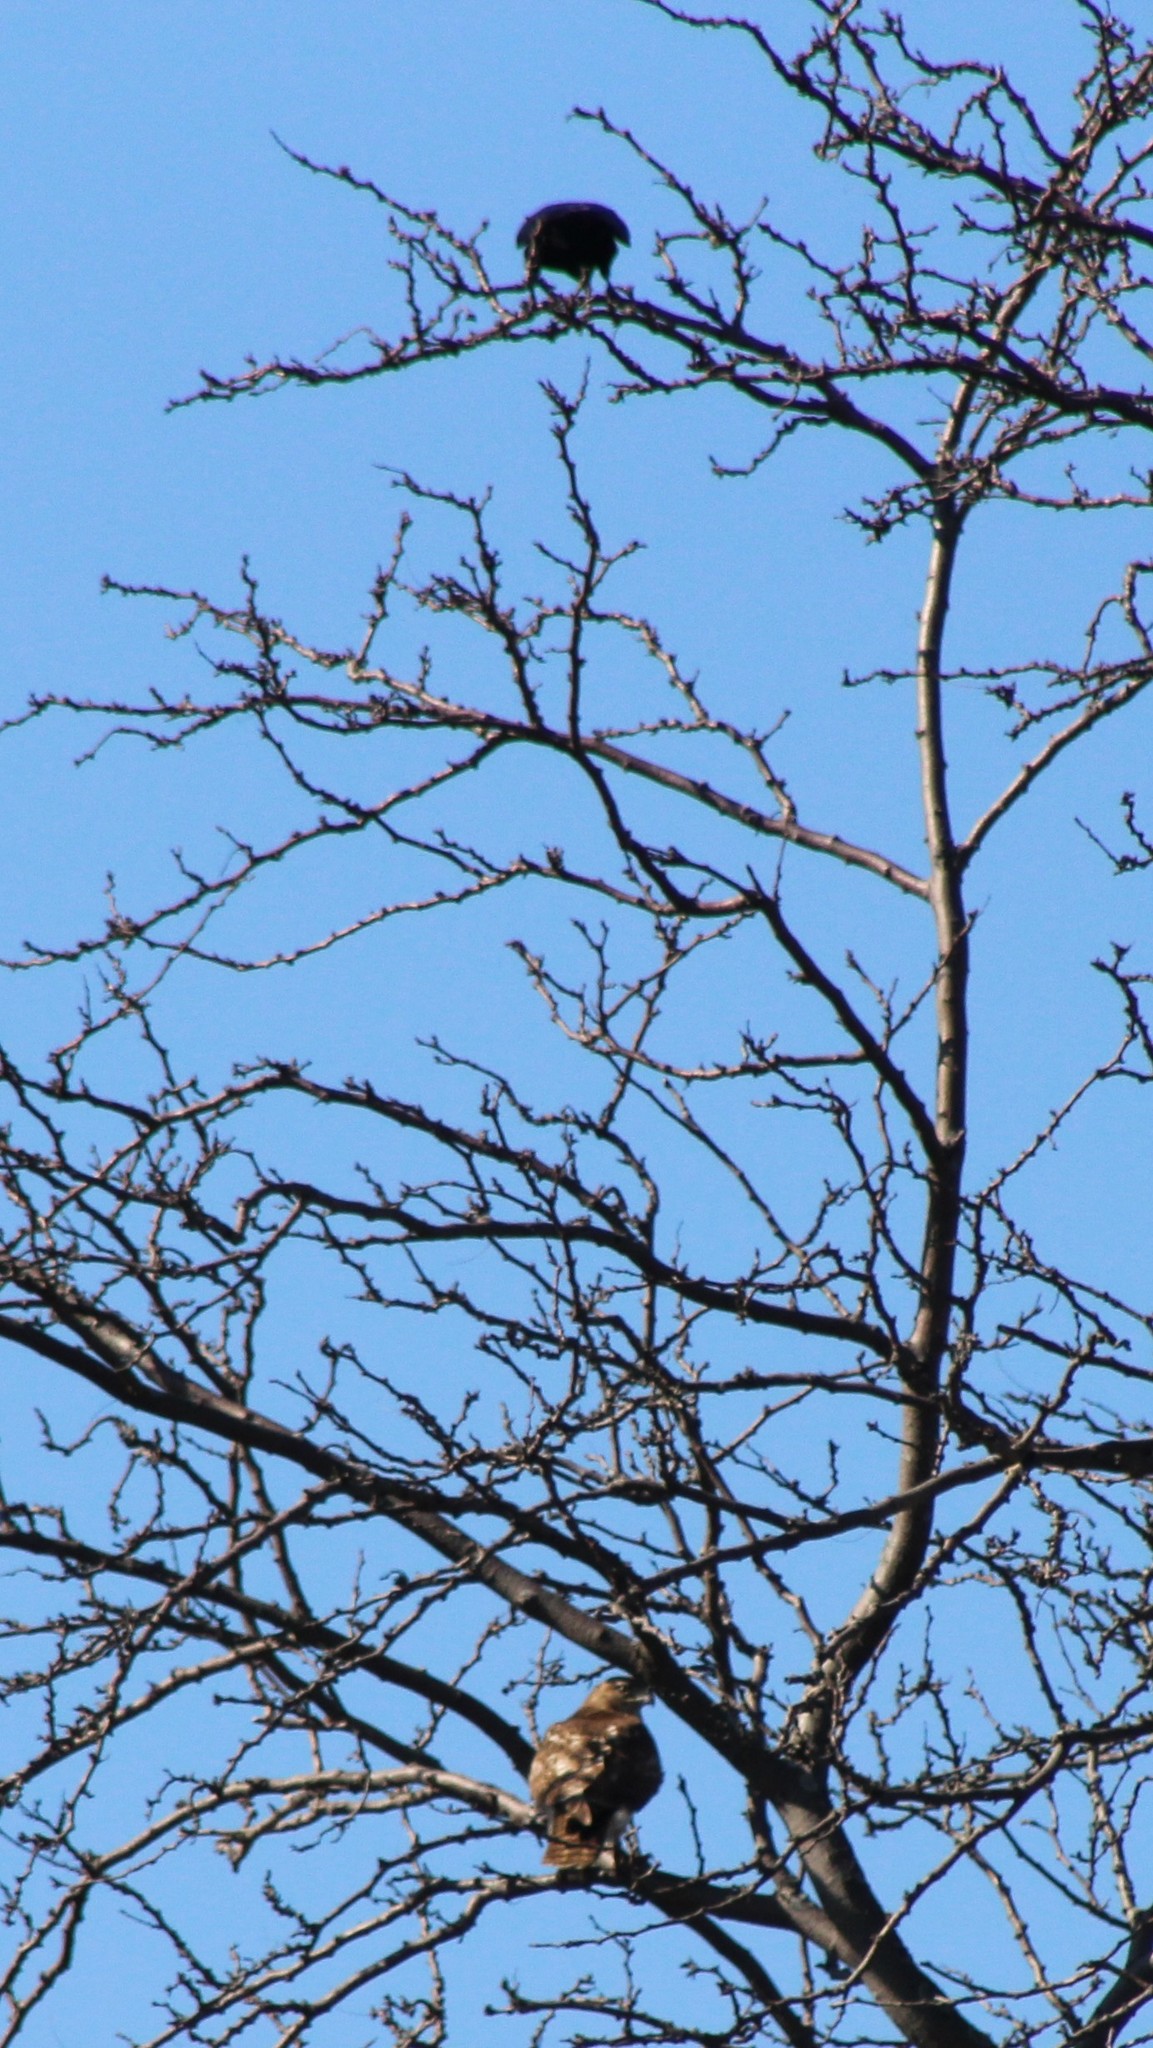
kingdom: Animalia
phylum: Chordata
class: Aves
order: Accipitriformes
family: Accipitridae
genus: Buteo
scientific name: Buteo jamaicensis
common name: Red-tailed hawk
